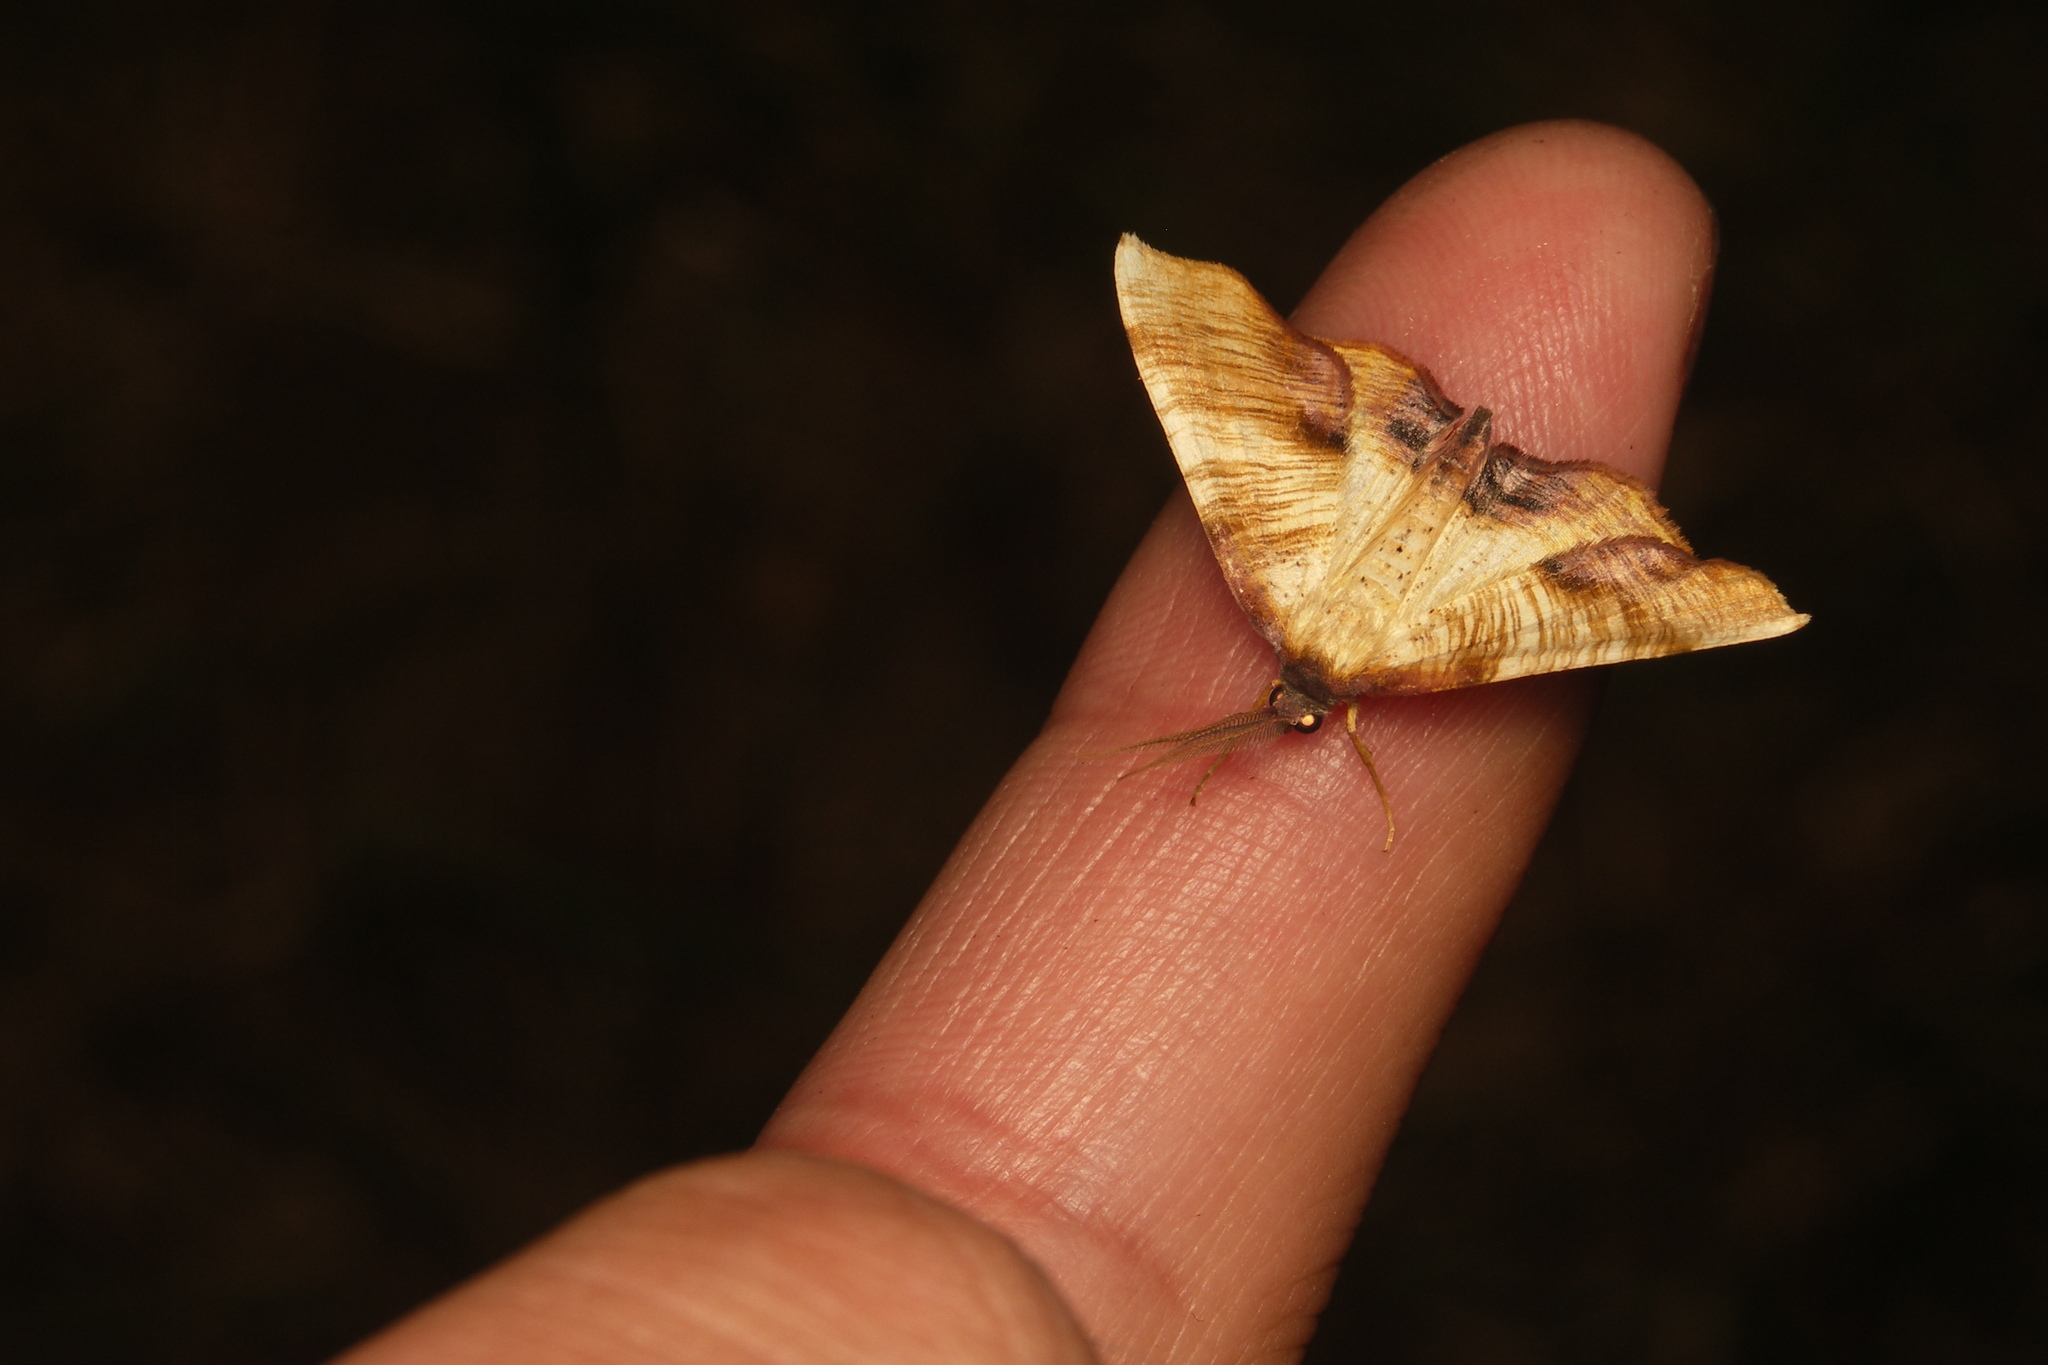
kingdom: Animalia
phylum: Arthropoda
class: Insecta
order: Lepidoptera
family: Geometridae
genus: Plagodis
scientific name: Plagodis dolabraria
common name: Scorched wing
